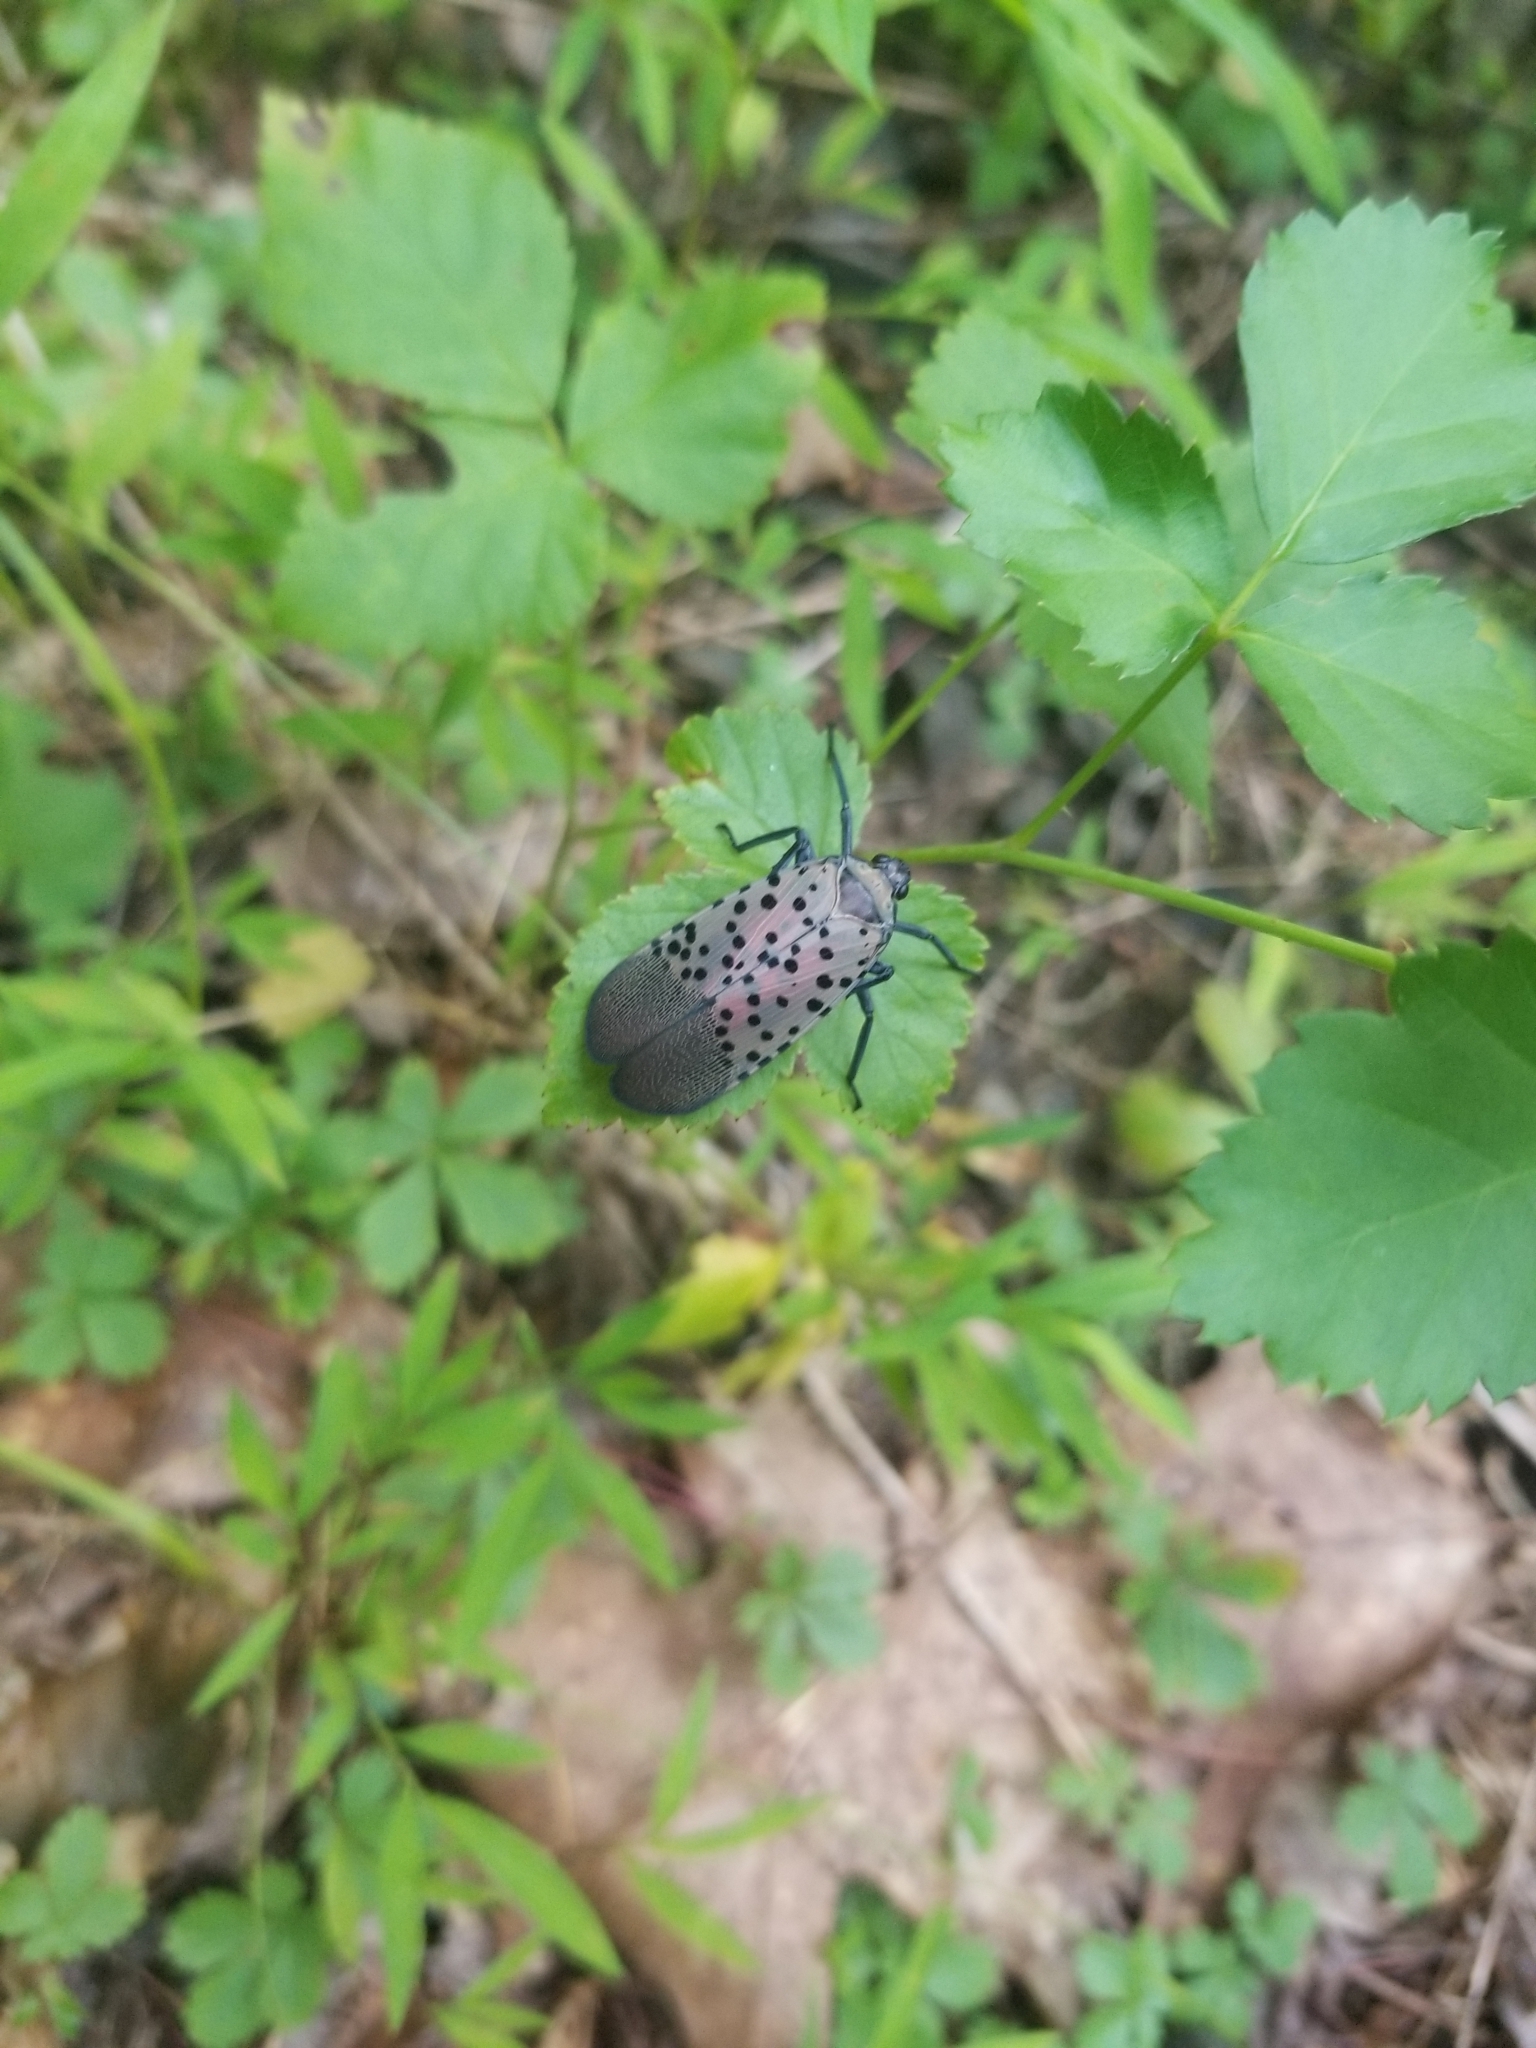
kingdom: Animalia
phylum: Arthropoda
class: Insecta
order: Hemiptera
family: Fulgoridae
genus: Lycorma
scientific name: Lycorma delicatula
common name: Spotted lanternfly
